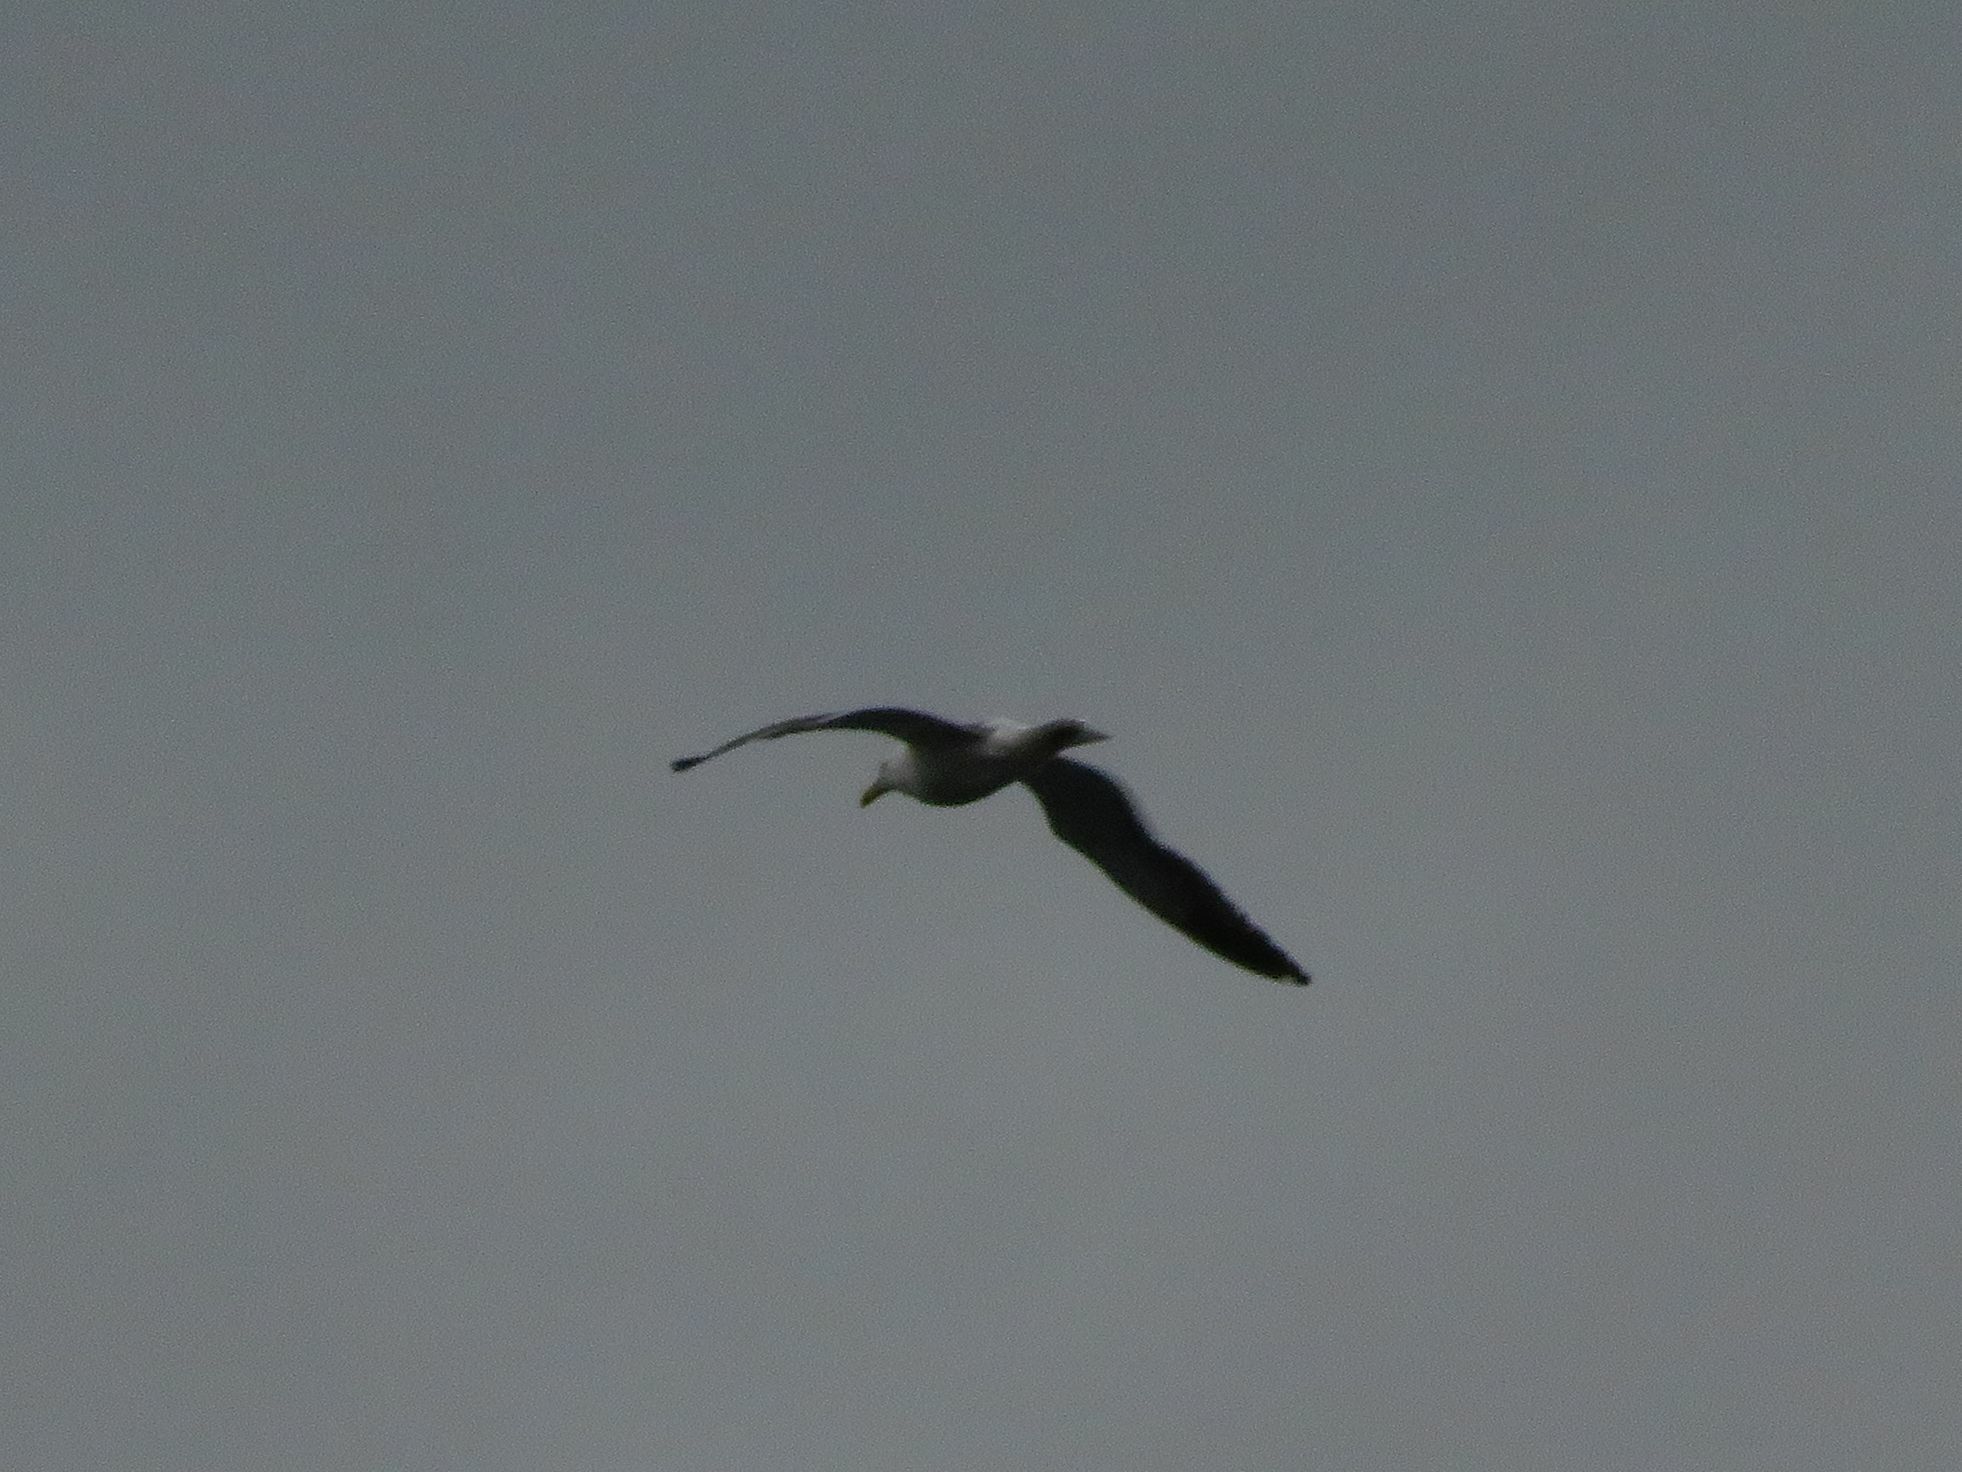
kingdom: Animalia
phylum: Chordata
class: Aves
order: Charadriiformes
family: Laridae
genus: Larus
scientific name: Larus dominicanus
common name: Kelp gull
